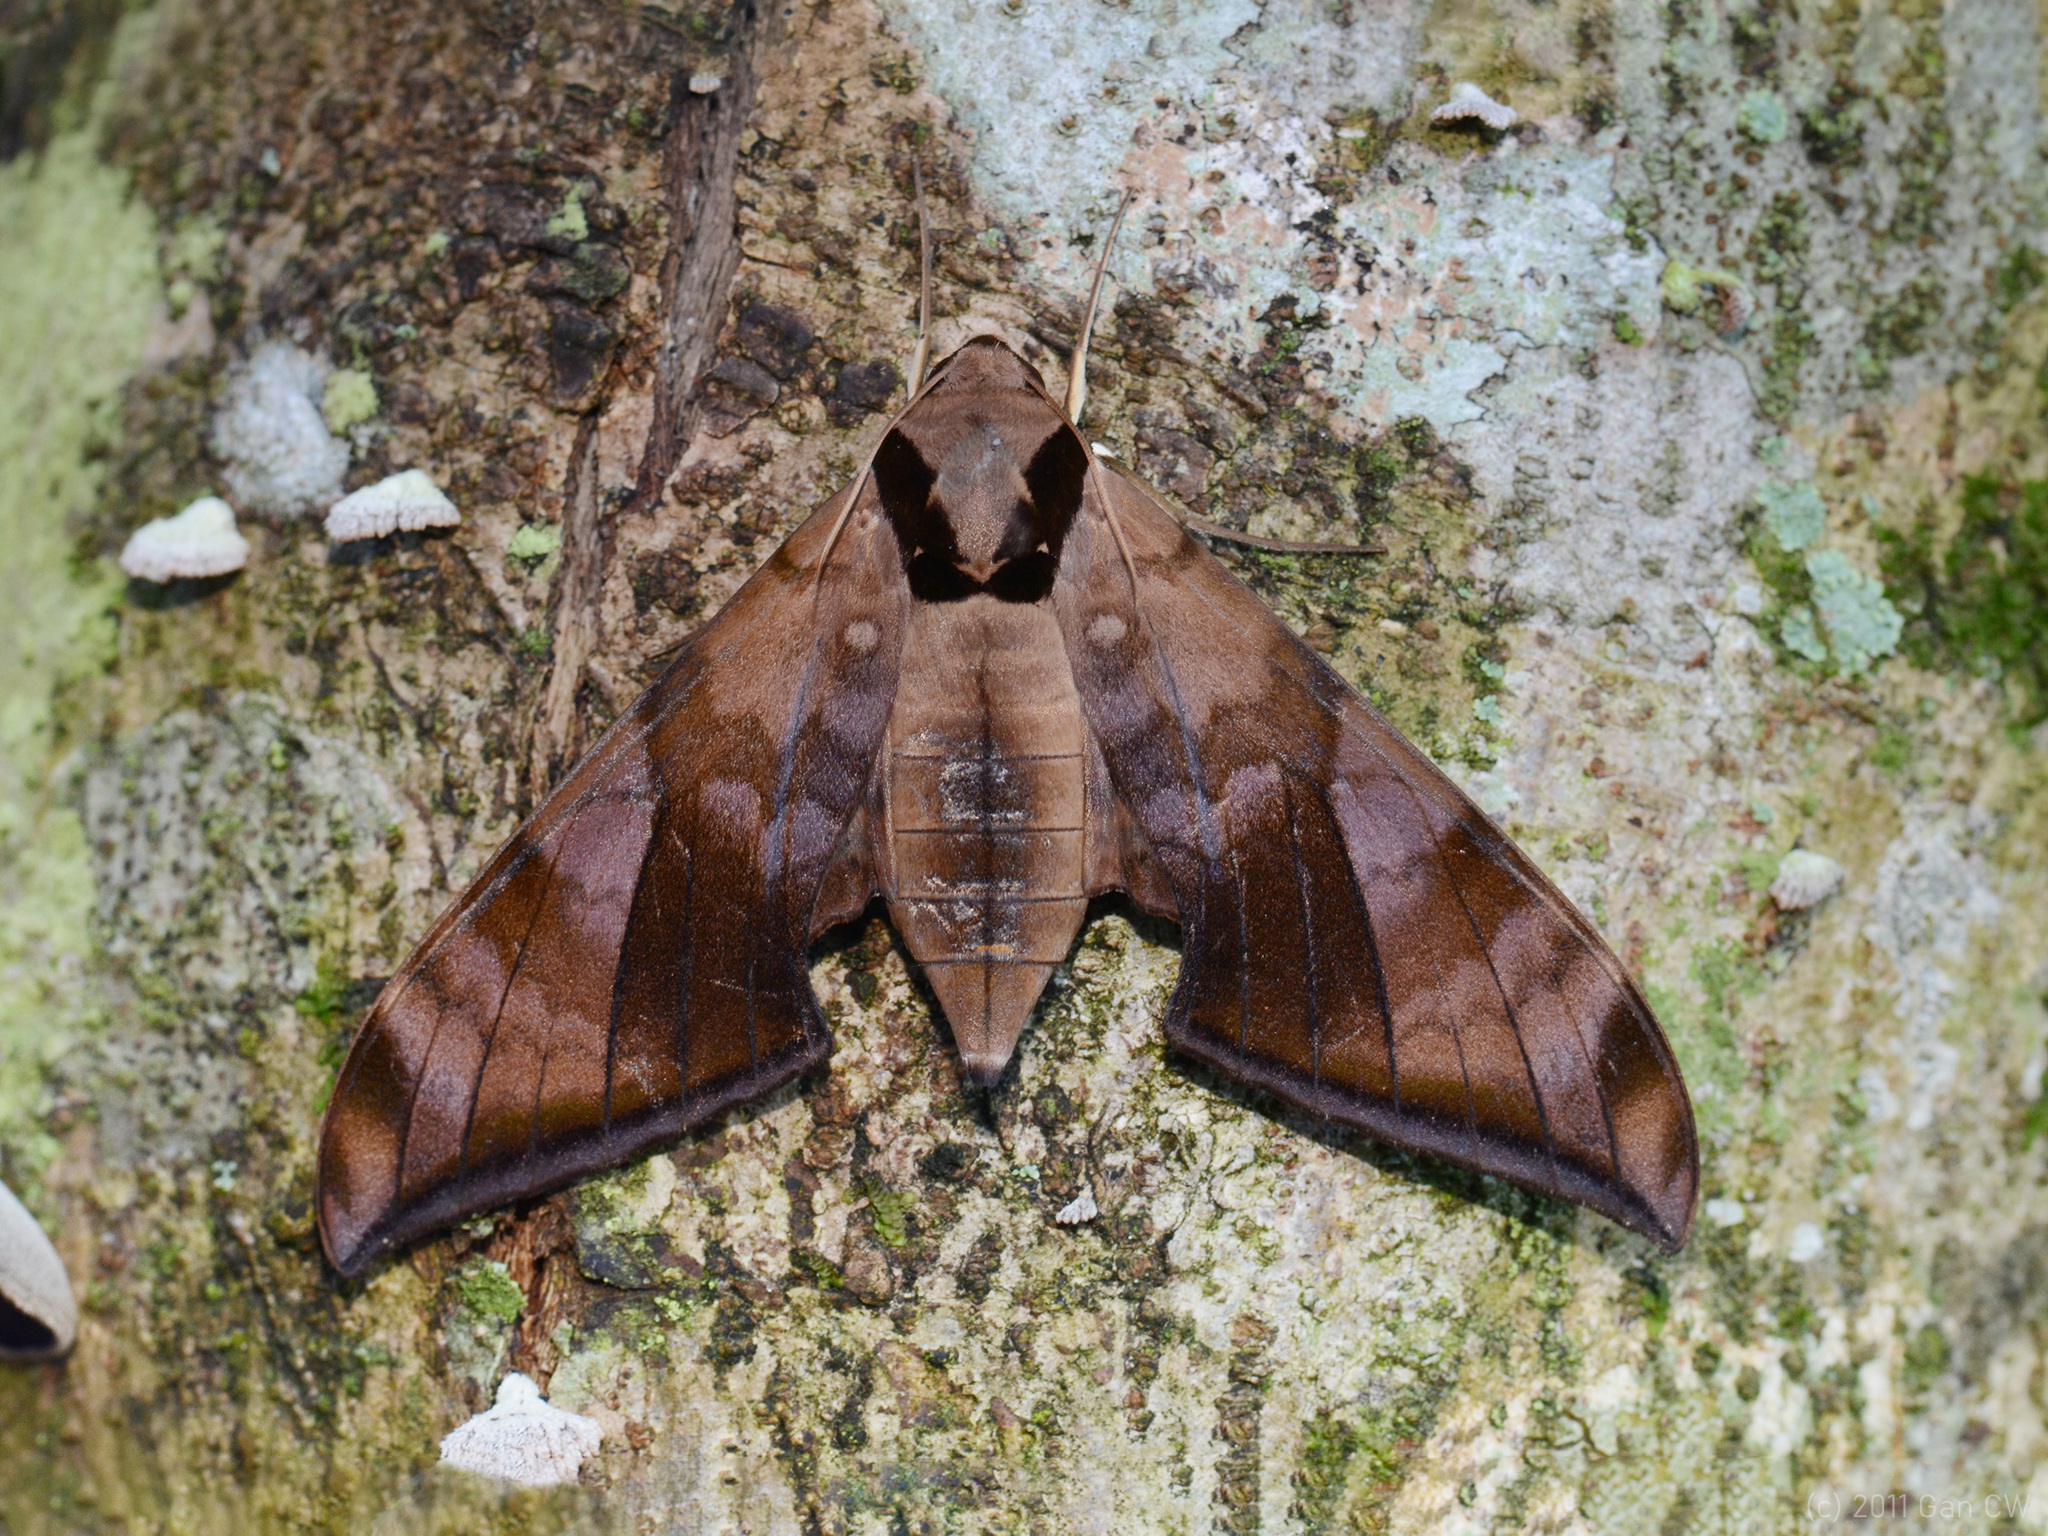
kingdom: Animalia
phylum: Arthropoda
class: Insecta
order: Lepidoptera
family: Sphingidae
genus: Ambulyx
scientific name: Ambulyx tattina
